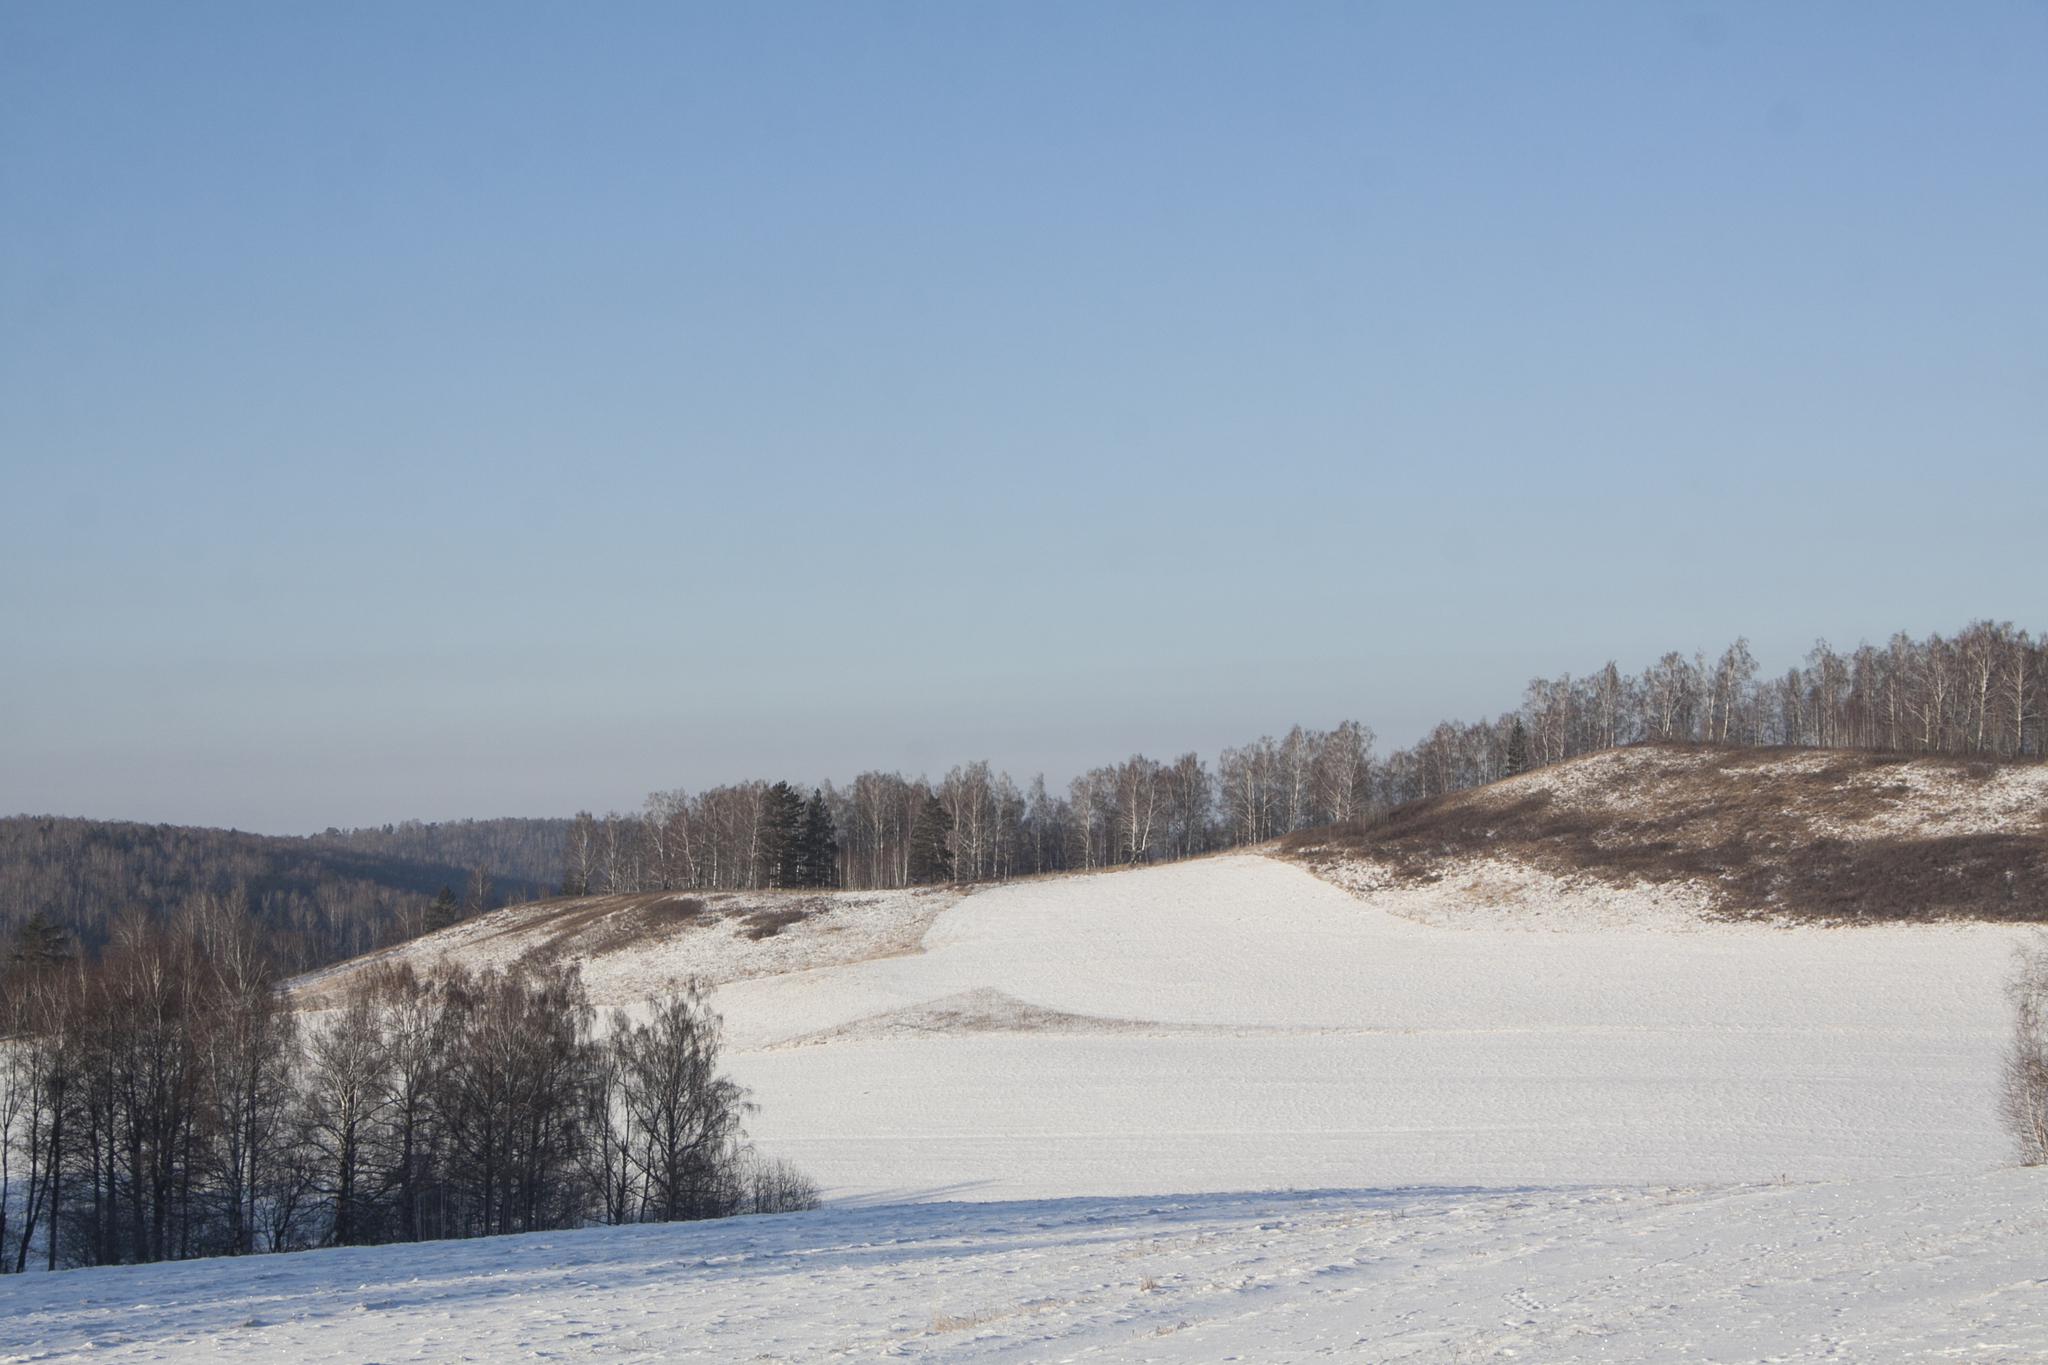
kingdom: Plantae
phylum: Tracheophyta
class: Magnoliopsida
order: Fagales
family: Betulaceae
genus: Betula
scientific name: Betula pendula
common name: Silver birch
